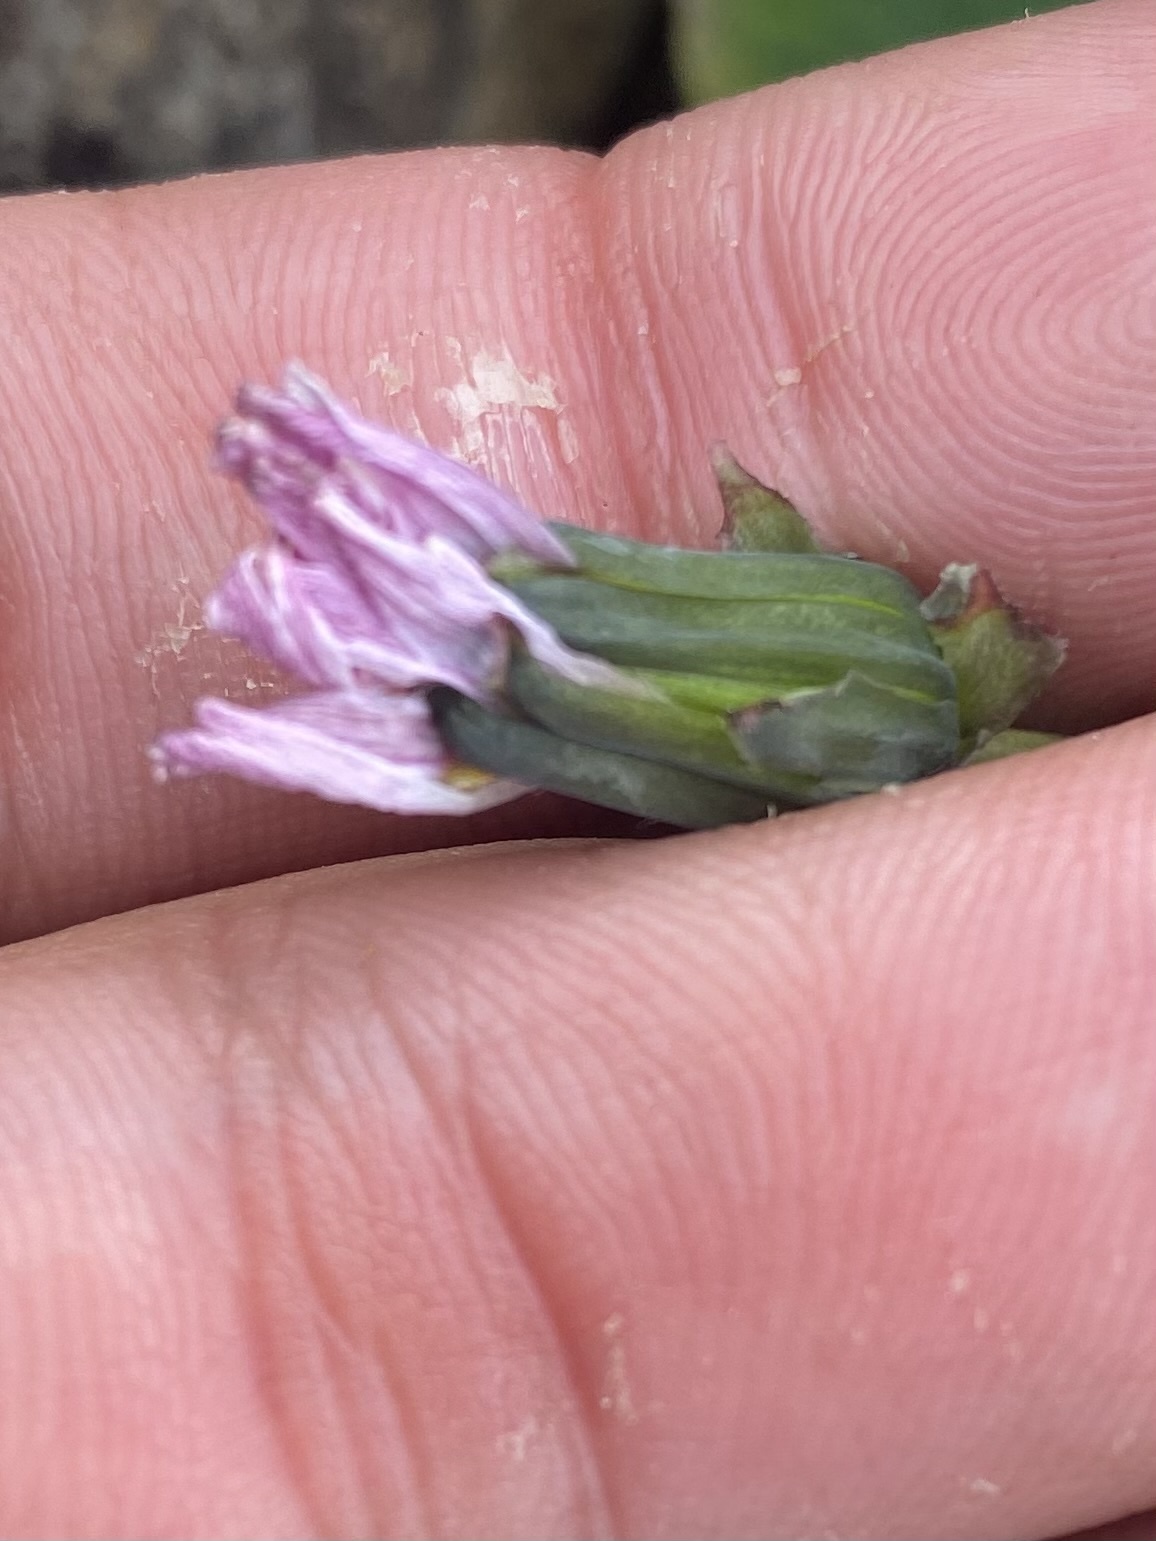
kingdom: Plantae
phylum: Tracheophyta
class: Magnoliopsida
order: Asterales
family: Asteraceae
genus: Taraxacum
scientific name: Taraxacum arcticum
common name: Arctic dandelion
